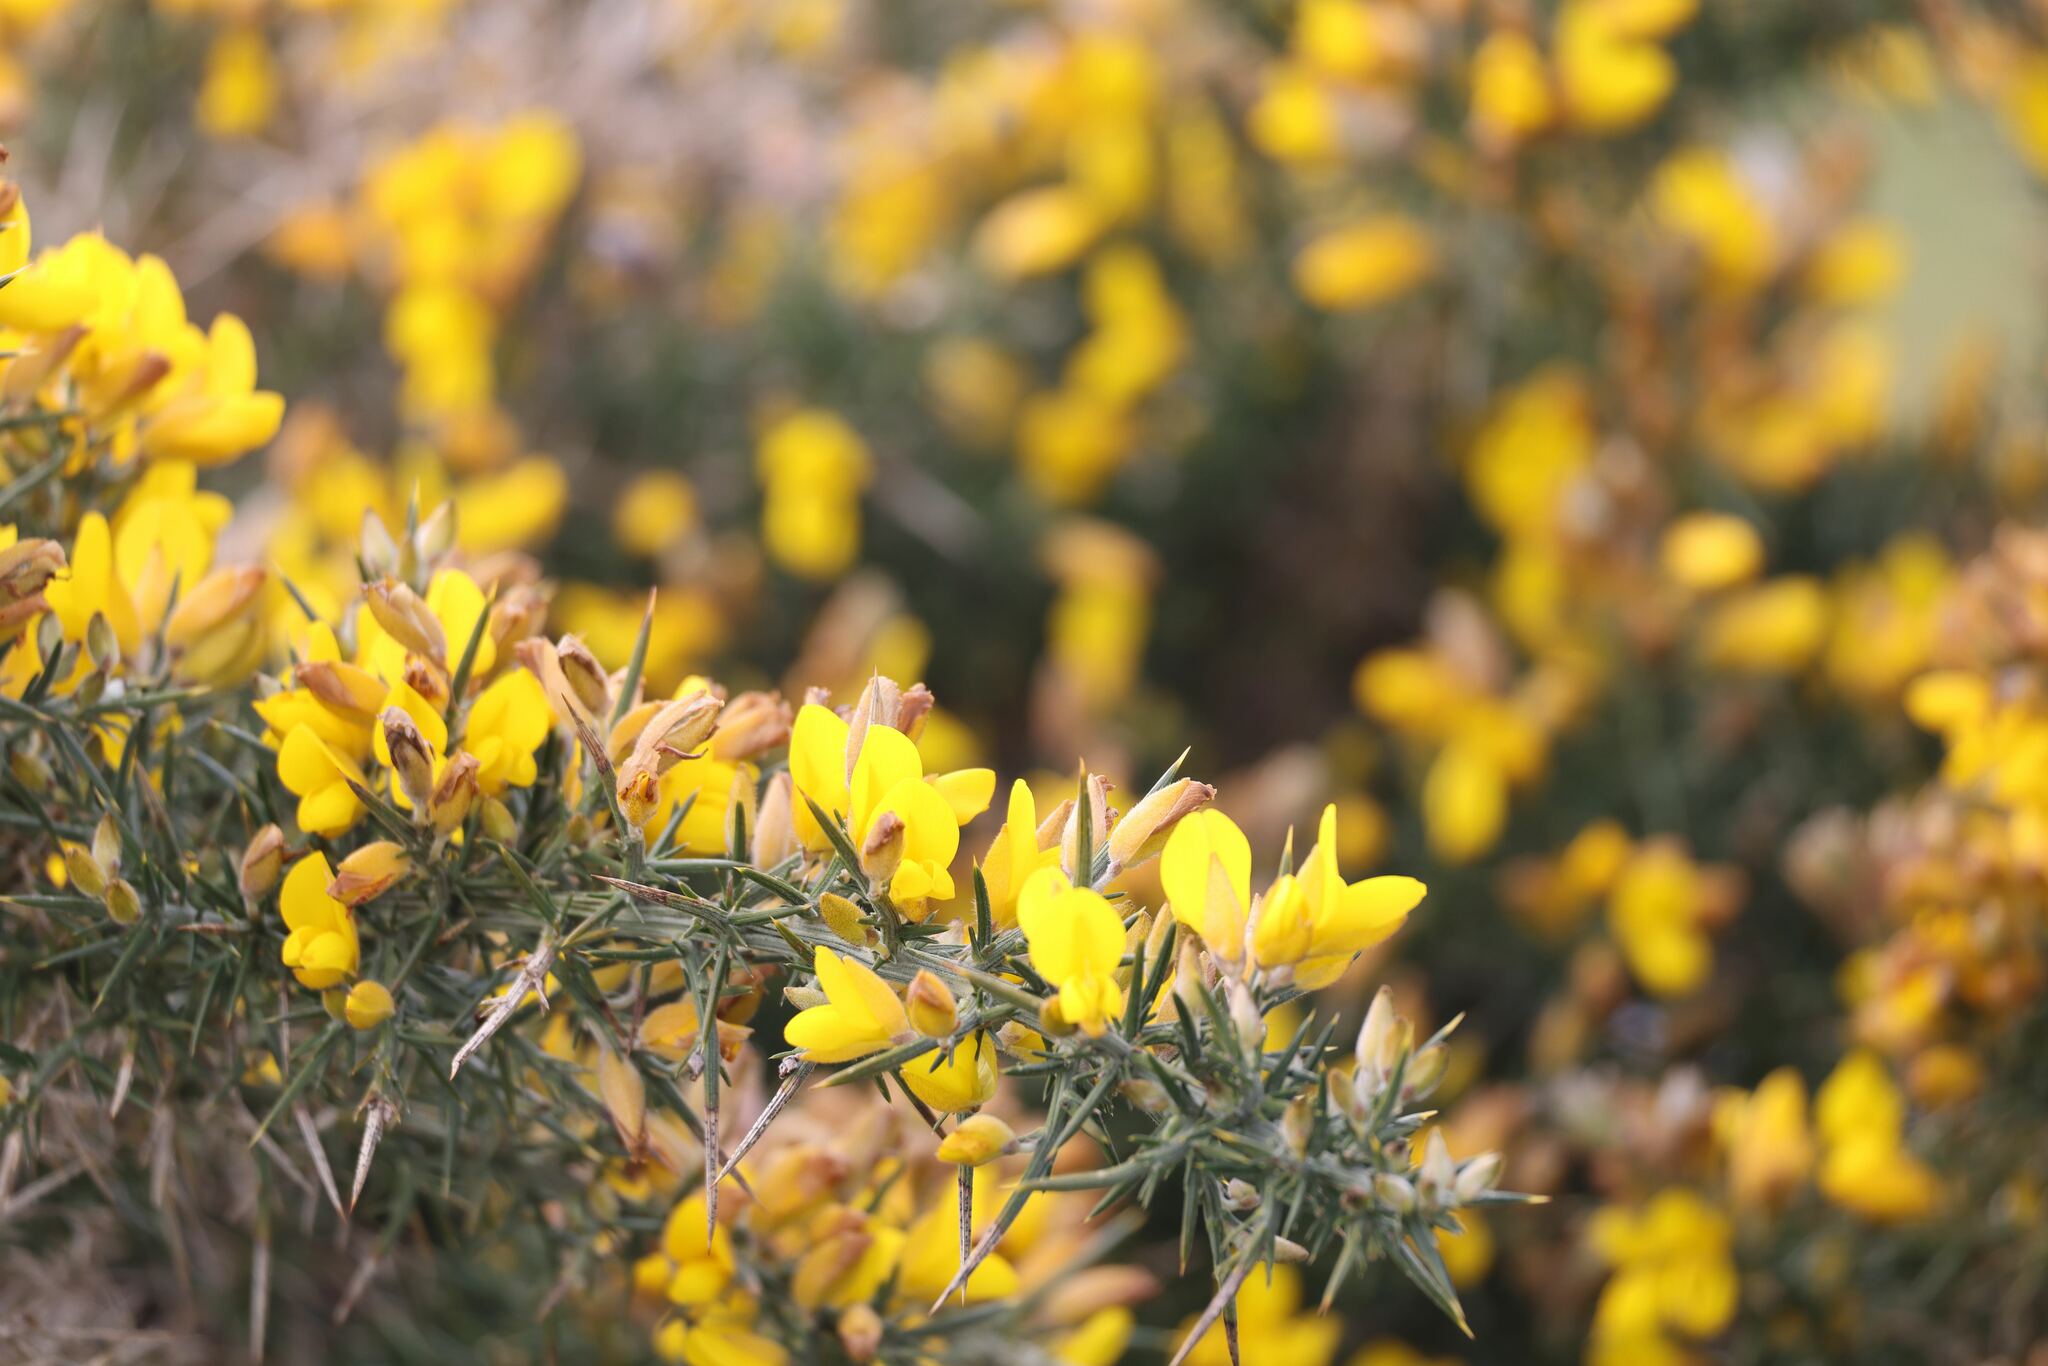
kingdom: Plantae
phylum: Tracheophyta
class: Magnoliopsida
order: Fabales
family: Fabaceae
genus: Ulex
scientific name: Ulex europaeus
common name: Common gorse
